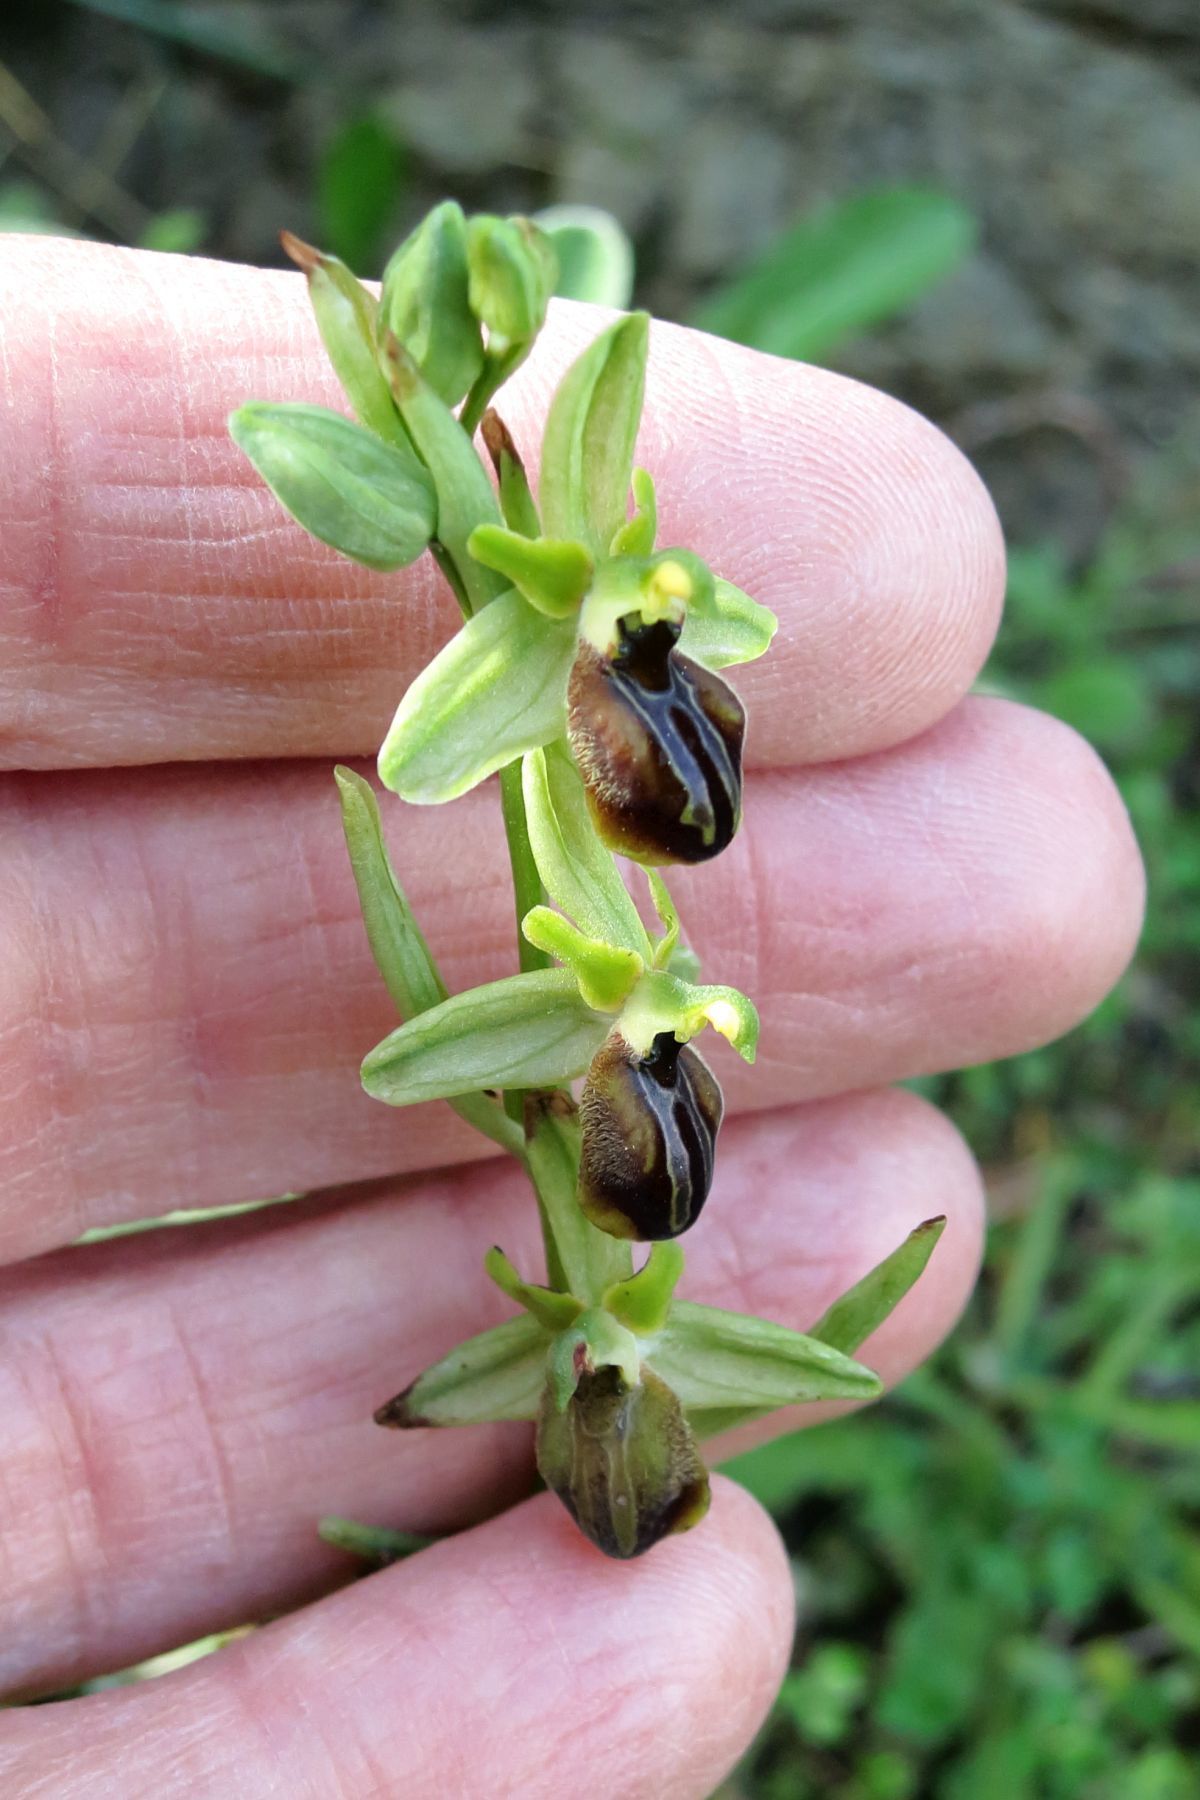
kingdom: Plantae
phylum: Tracheophyta
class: Liliopsida
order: Asparagales
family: Orchidaceae
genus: Ophrys
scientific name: Ophrys sphegodes
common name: Early spider-orchid
